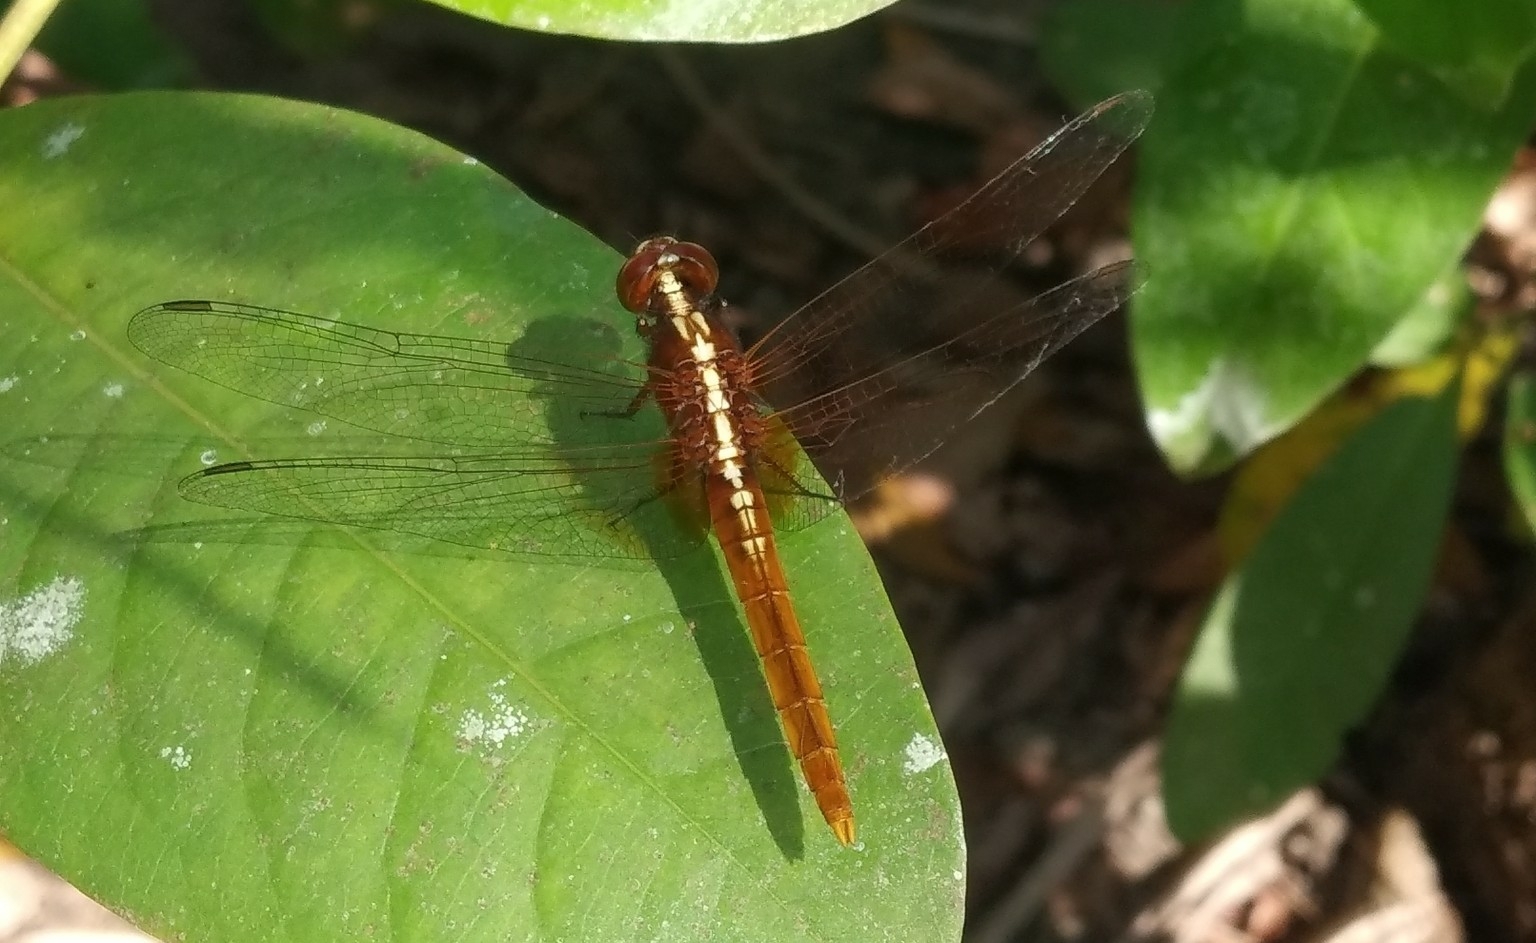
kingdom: Animalia
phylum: Arthropoda
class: Insecta
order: Odonata
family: Libellulidae
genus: Rhodothemis
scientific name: Rhodothemis rufa
